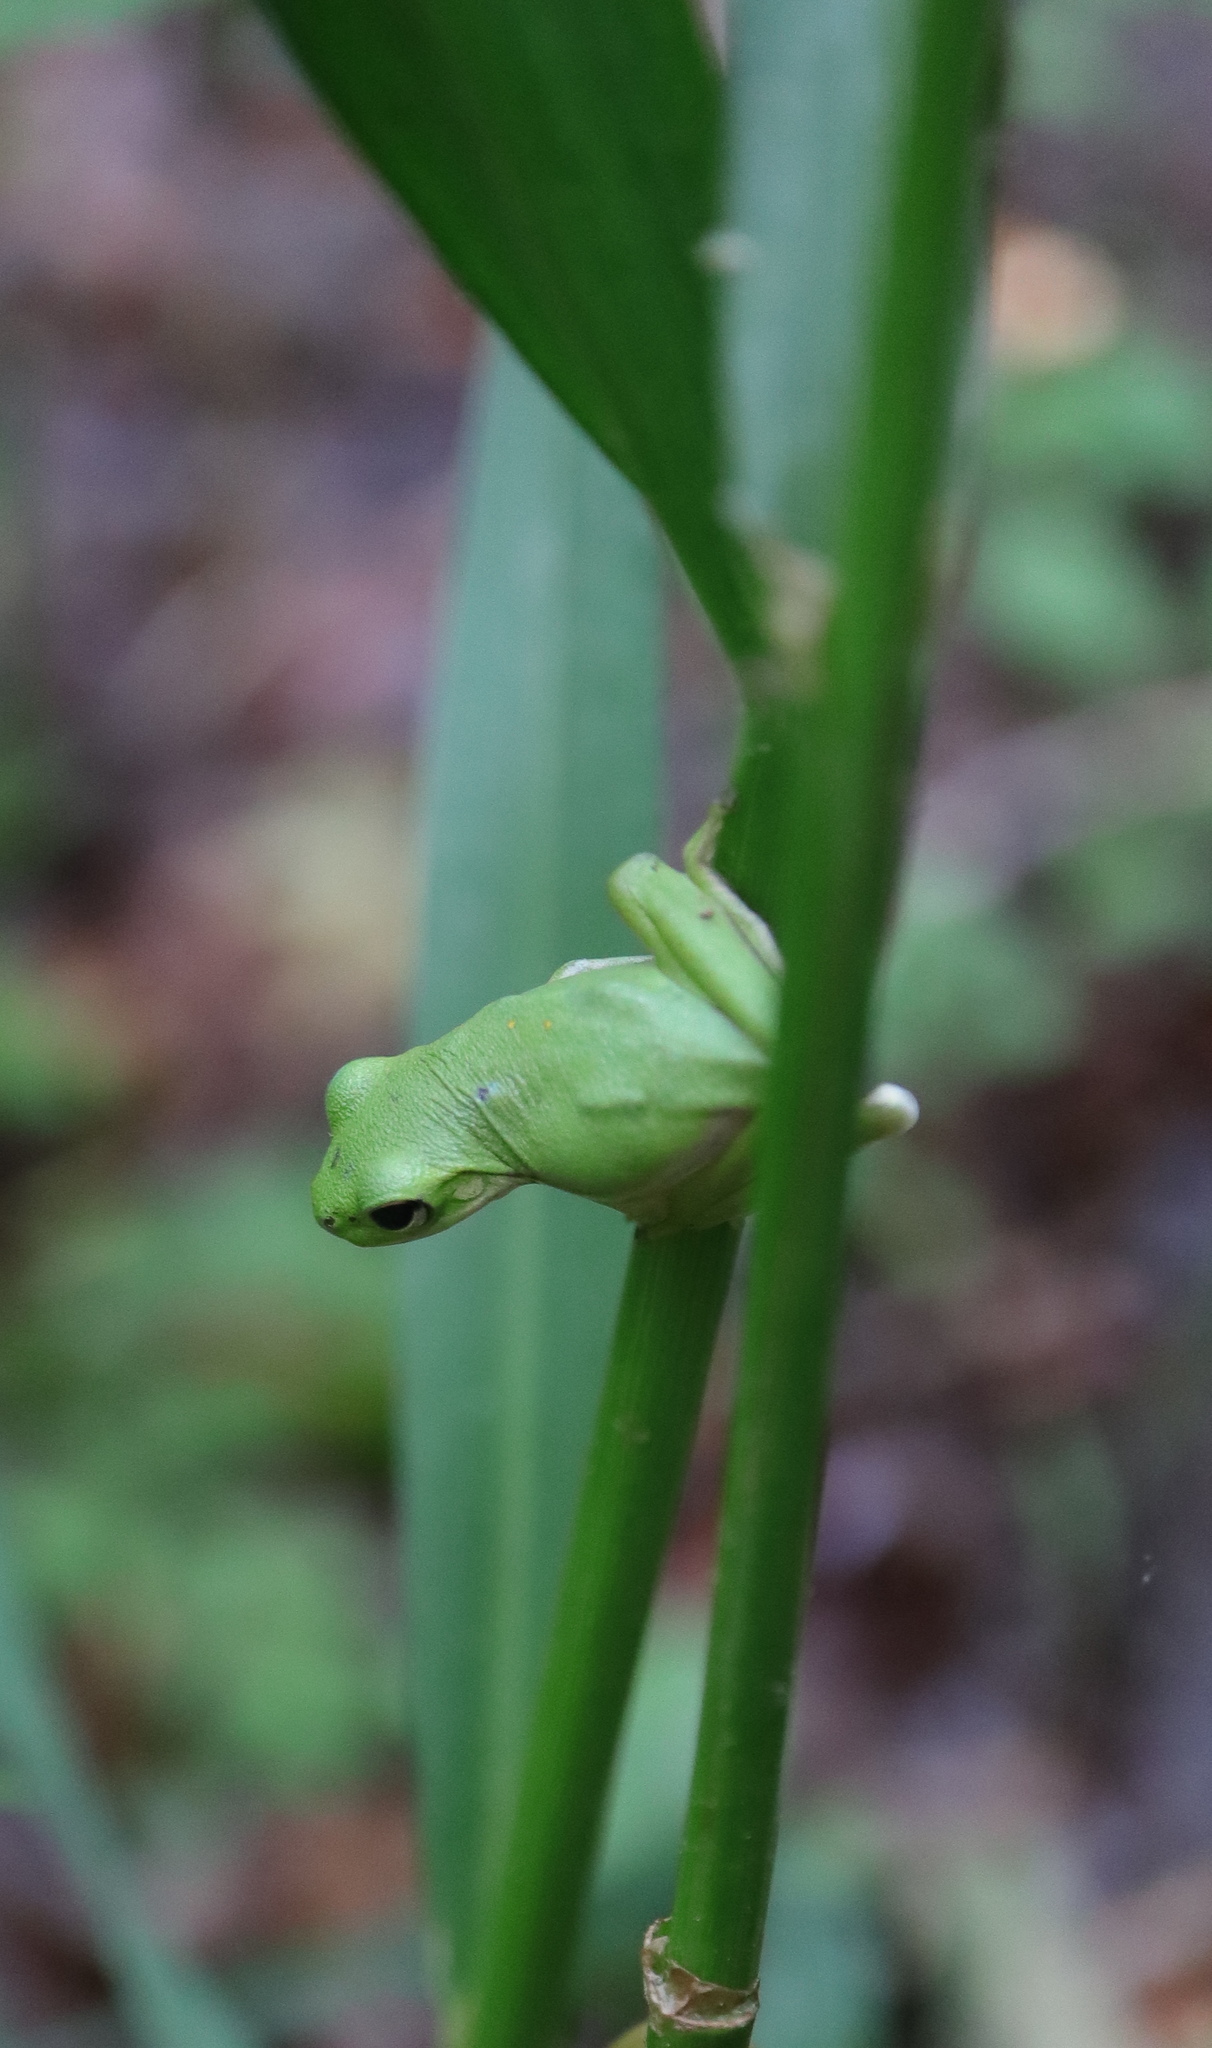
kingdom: Animalia
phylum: Chordata
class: Amphibia
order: Anura
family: Hylidae
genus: Dryophytes
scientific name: Dryophytes cinereus
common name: Green treefrog
